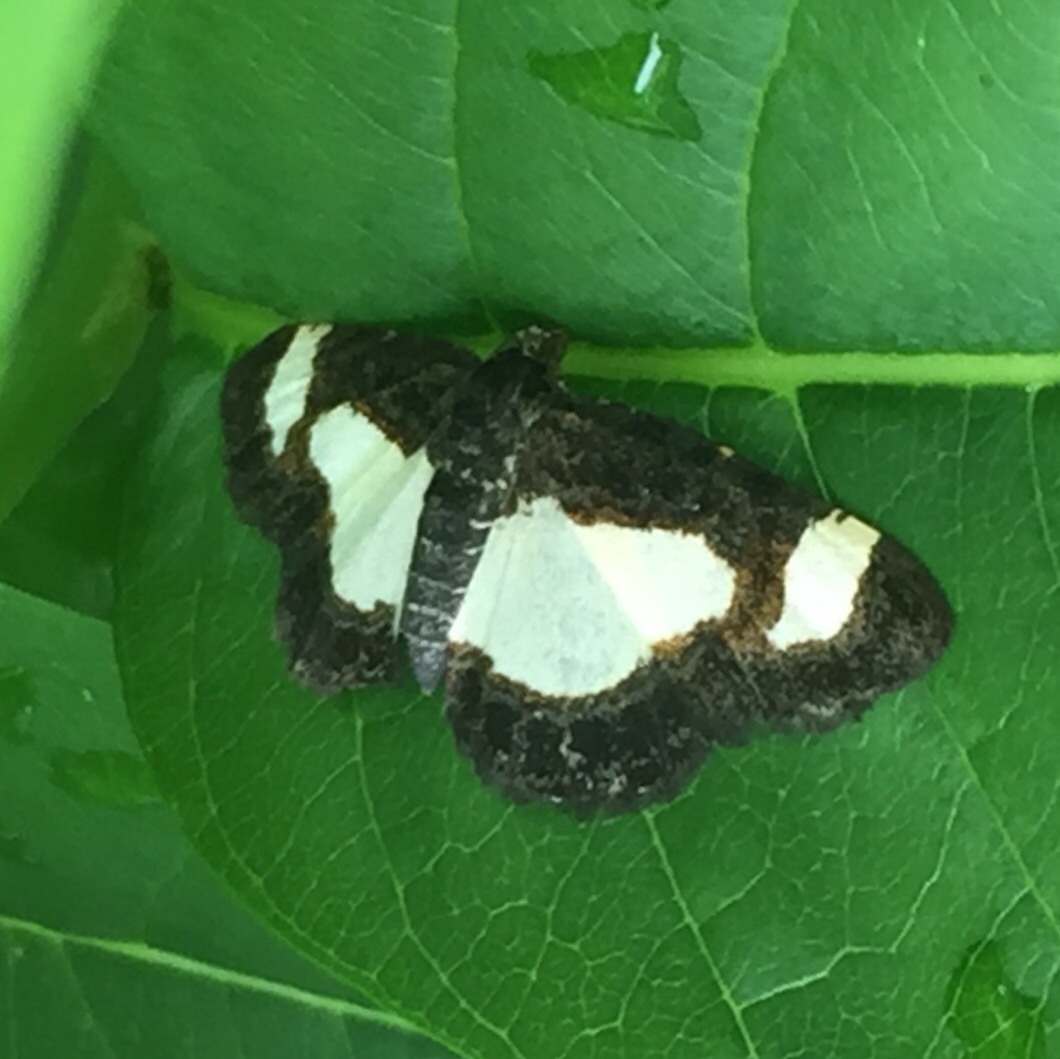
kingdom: Animalia
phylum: Arthropoda
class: Insecta
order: Lepidoptera
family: Geometridae
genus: Heliomata
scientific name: Heliomata cycladata
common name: Common spring moth
